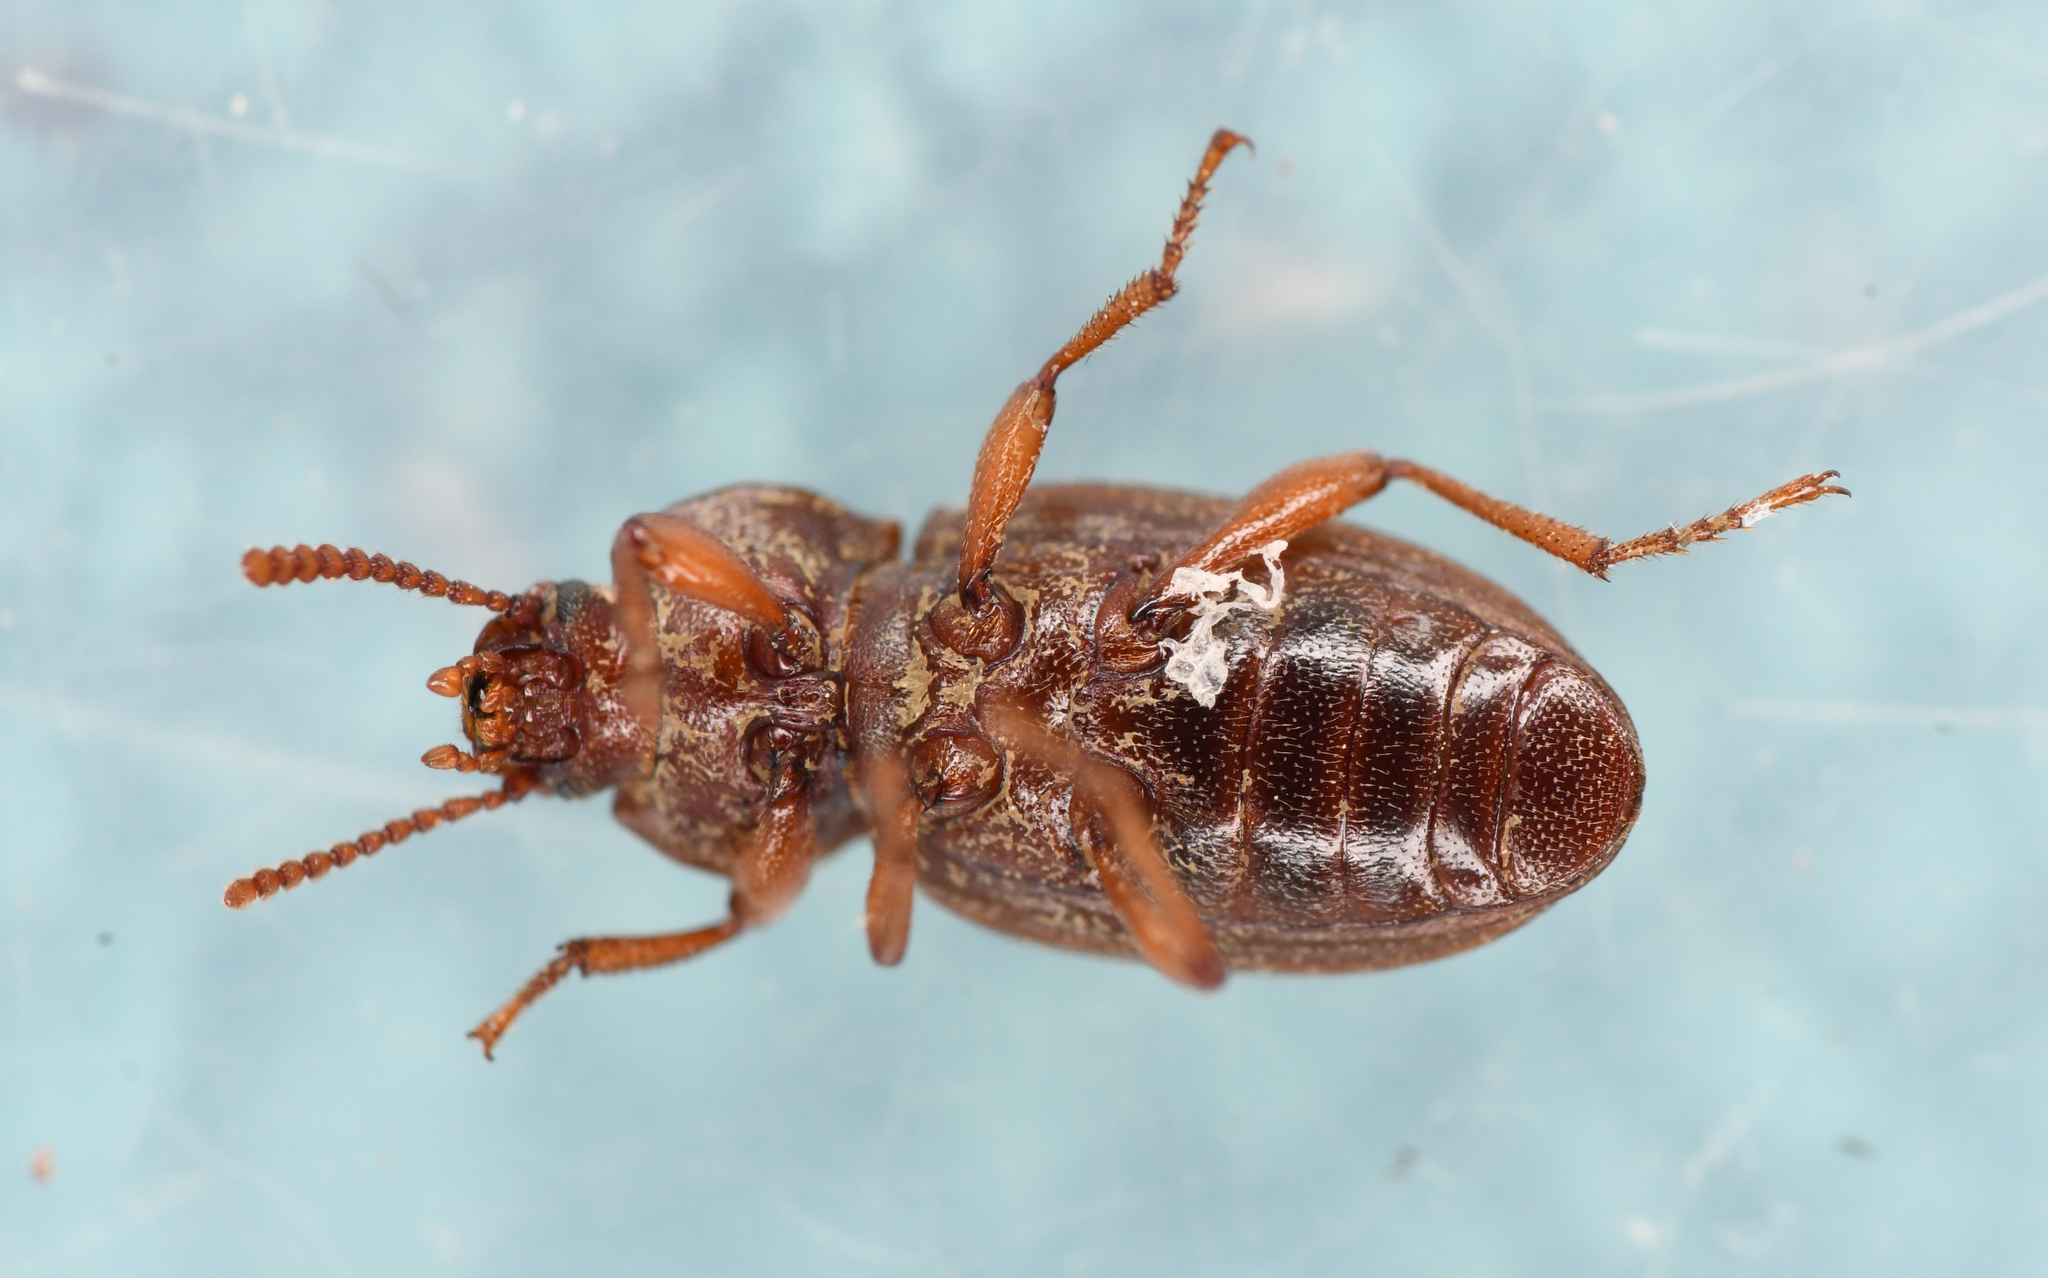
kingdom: Animalia
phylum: Arthropoda
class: Insecta
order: Coleoptera
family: Tenebrionidae
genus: Epantius
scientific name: Epantius obscurus
